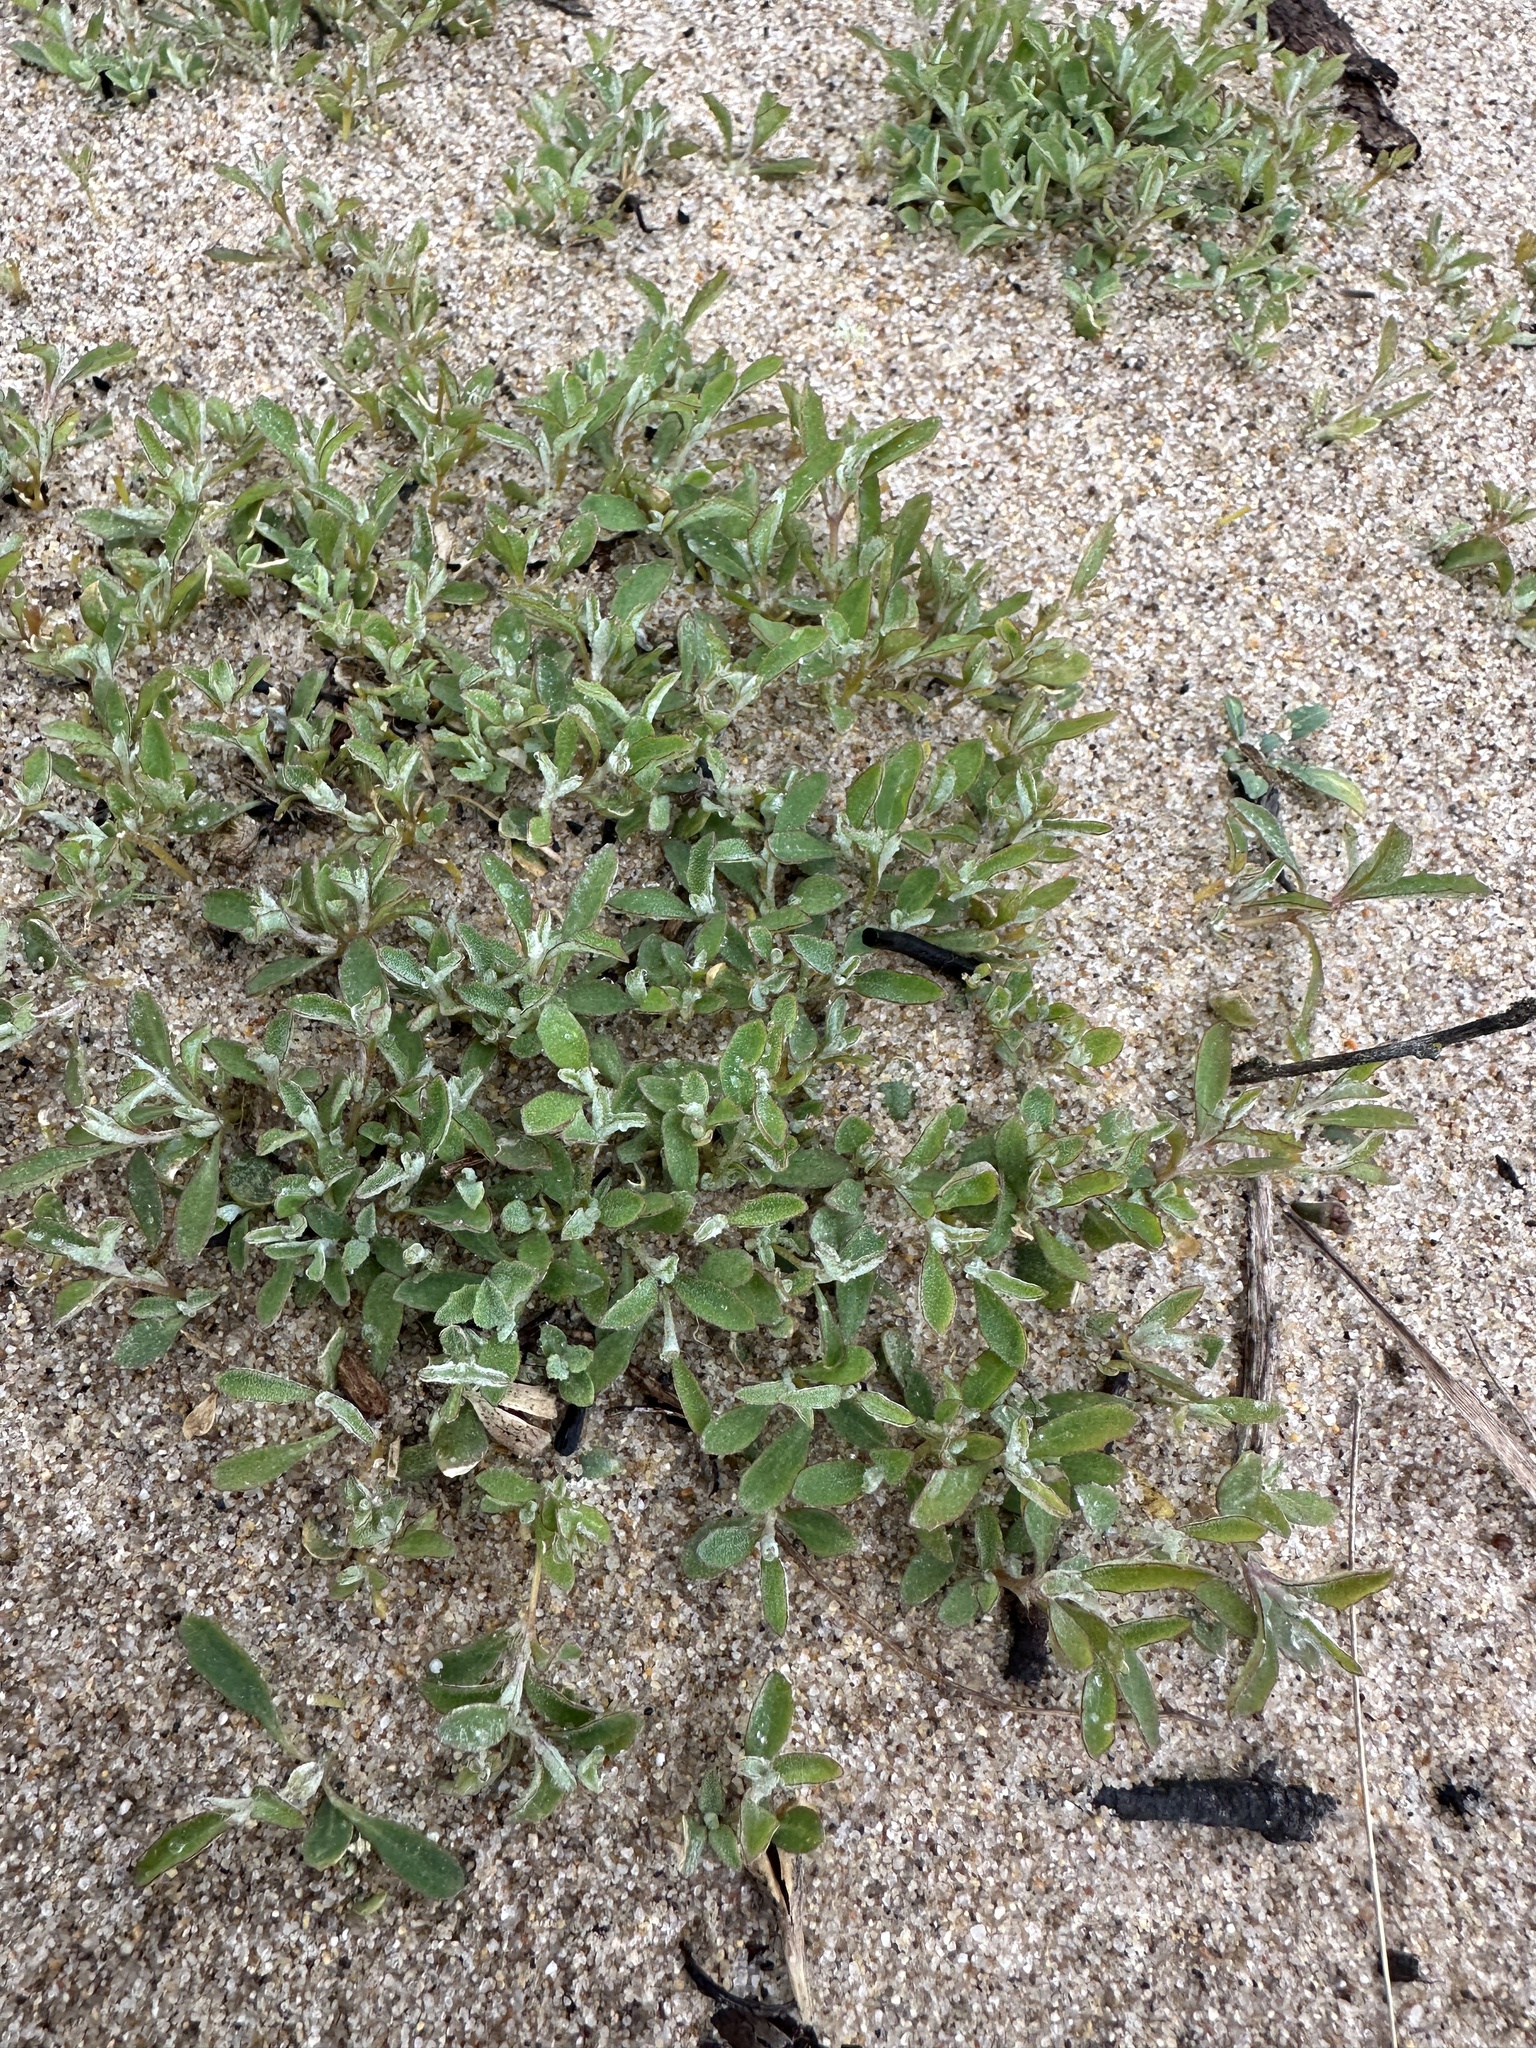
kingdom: Plantae
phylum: Tracheophyta
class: Magnoliopsida
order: Caryophyllales
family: Amaranthaceae
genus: Atriplex
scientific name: Atriplex semibaccata
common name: Australian saltbush
